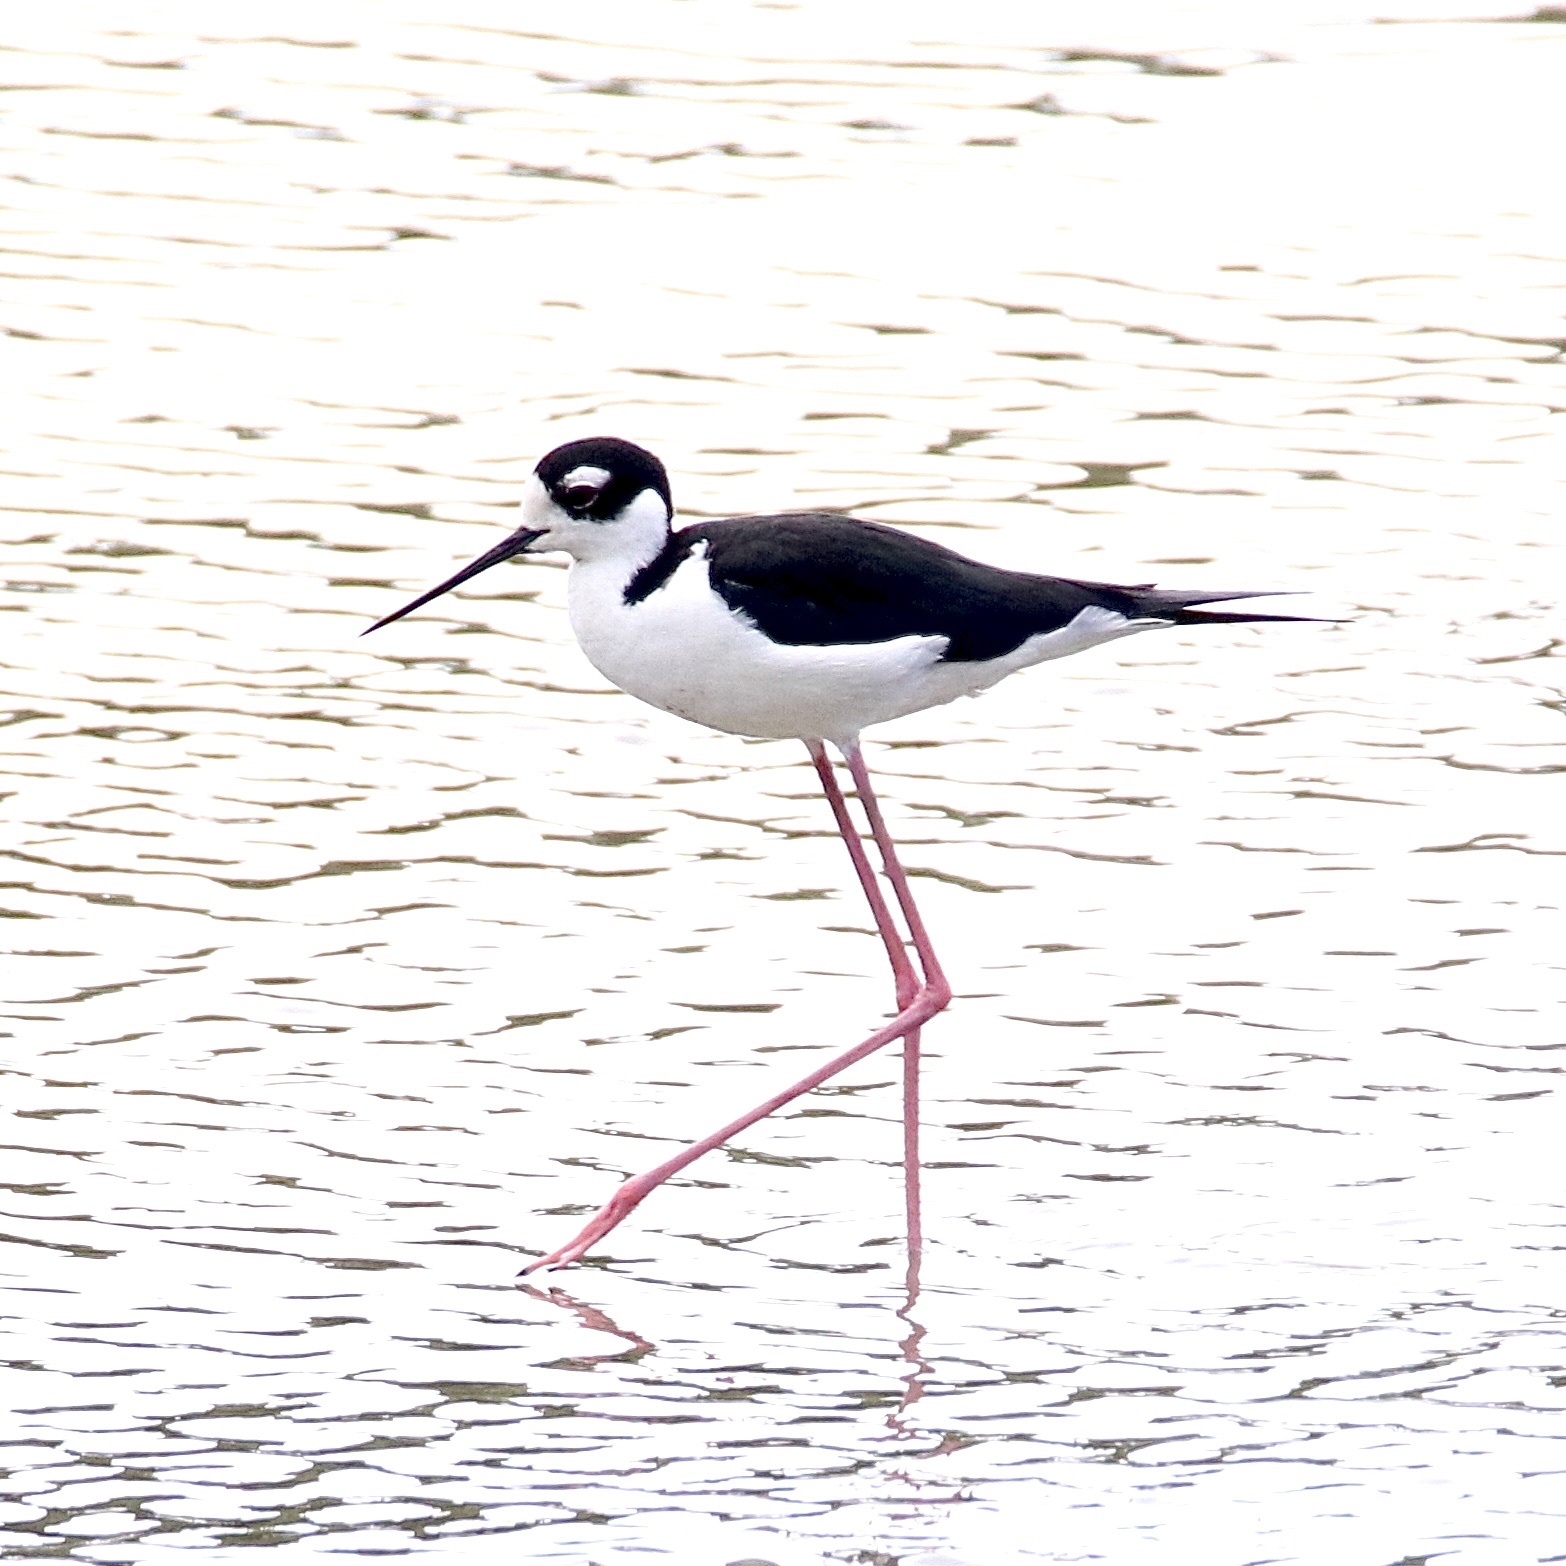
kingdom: Animalia
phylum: Chordata
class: Aves
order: Charadriiformes
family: Recurvirostridae
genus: Himantopus
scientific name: Himantopus mexicanus
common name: Black-necked stilt
